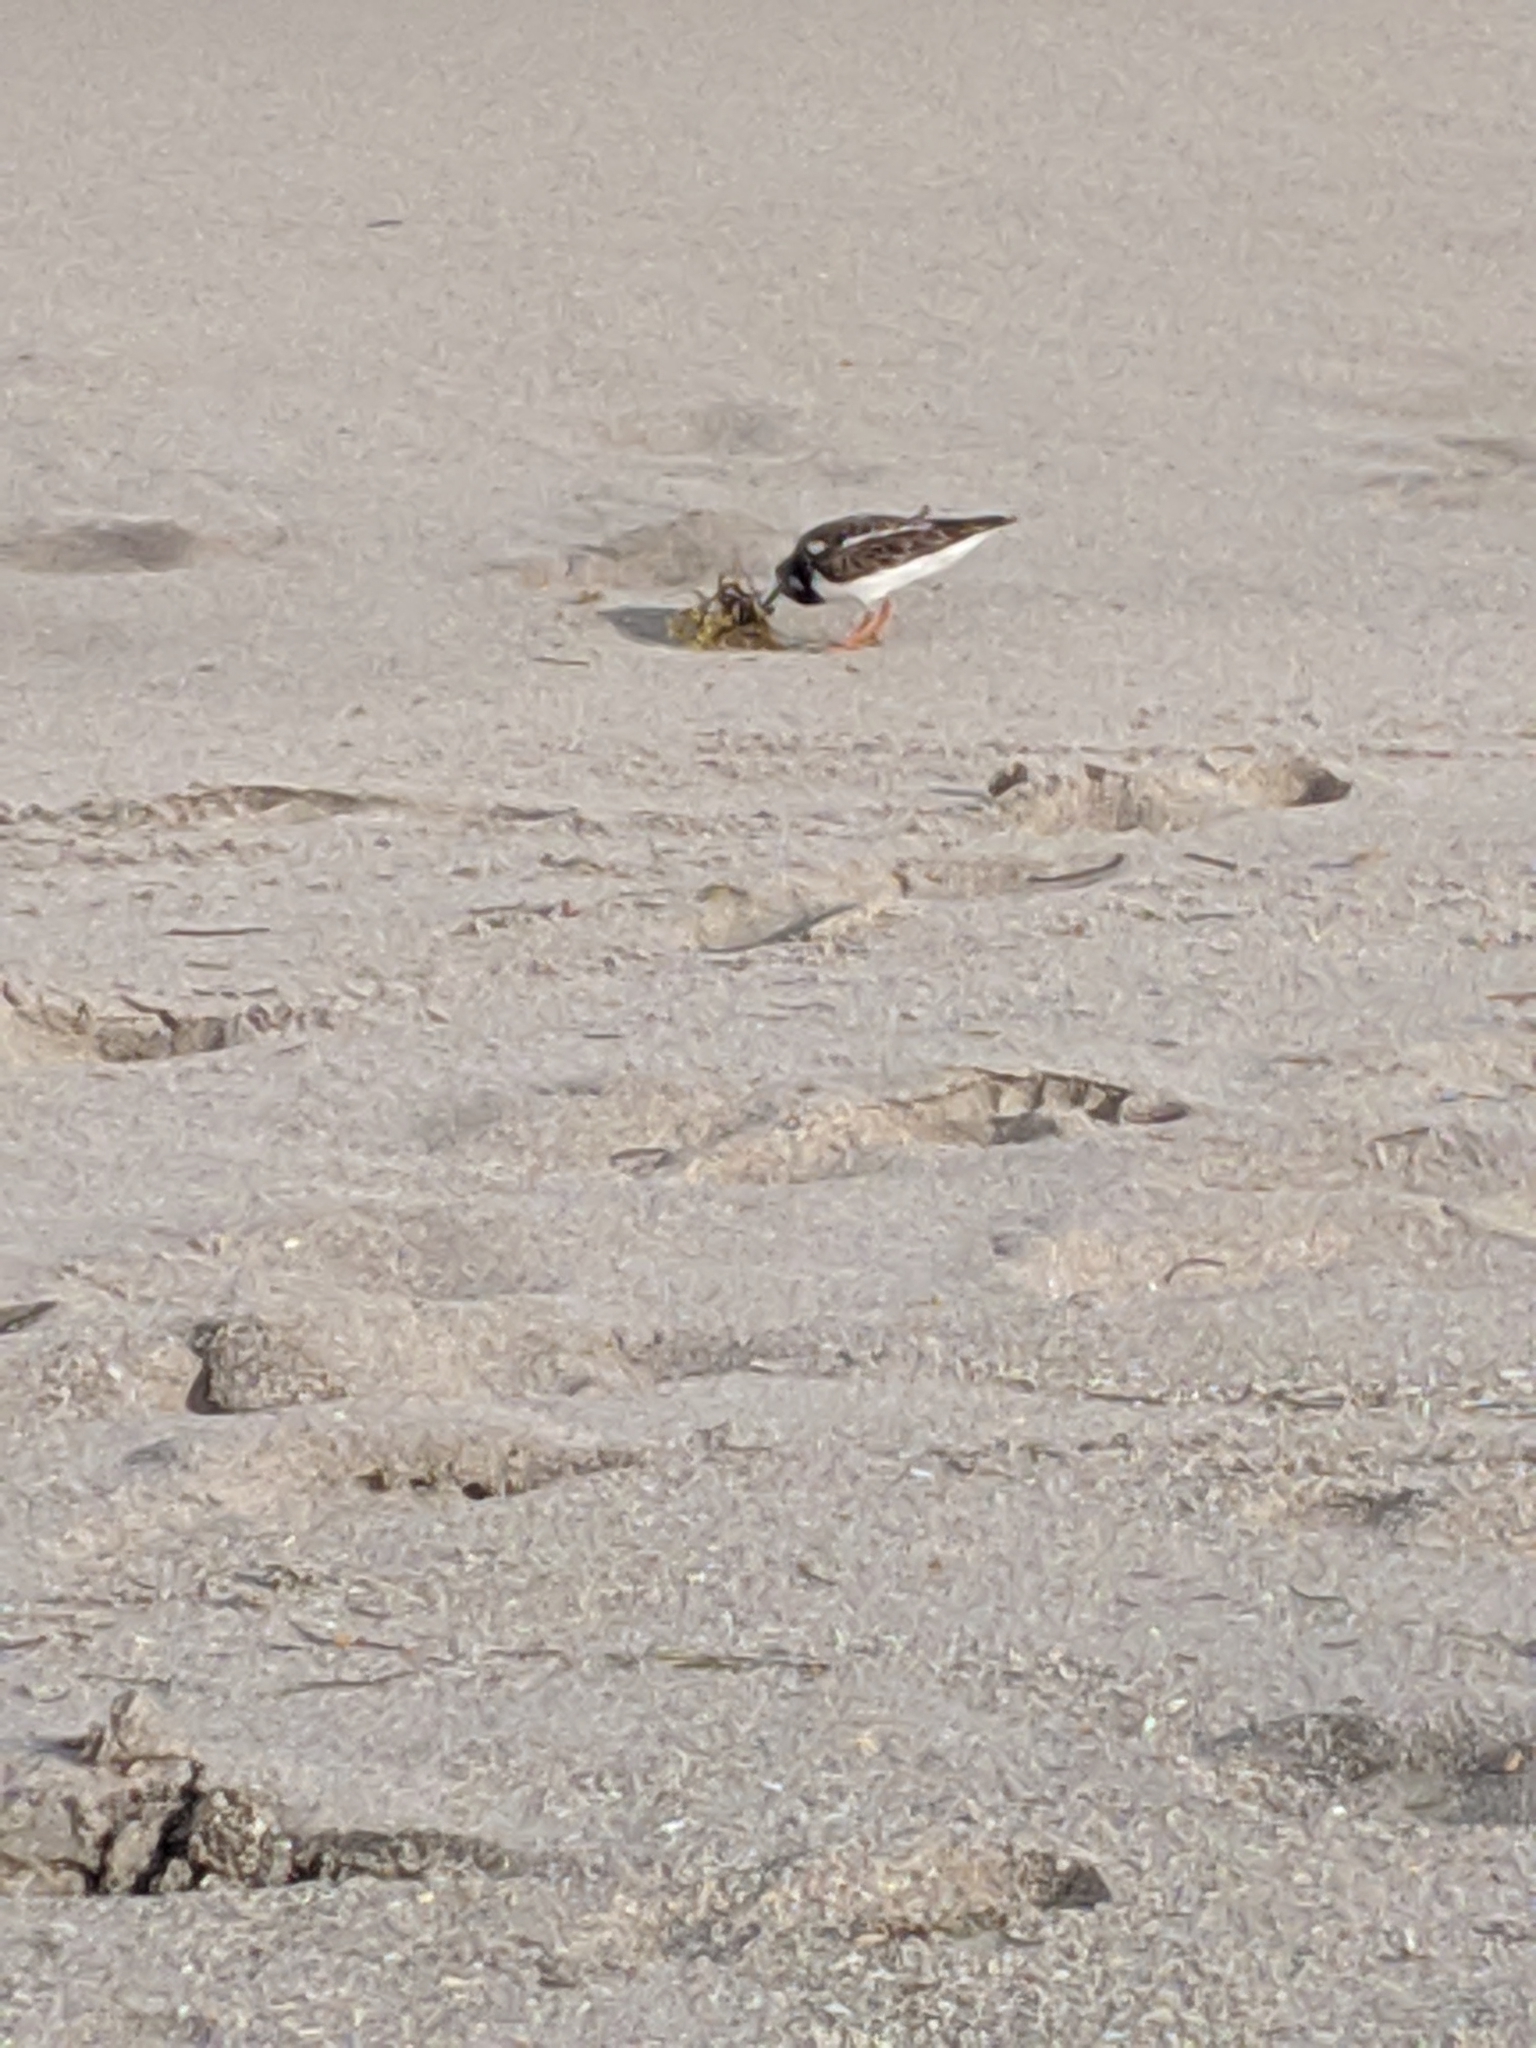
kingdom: Animalia
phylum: Chordata
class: Aves
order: Charadriiformes
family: Scolopacidae
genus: Arenaria
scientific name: Arenaria interpres
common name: Ruddy turnstone
